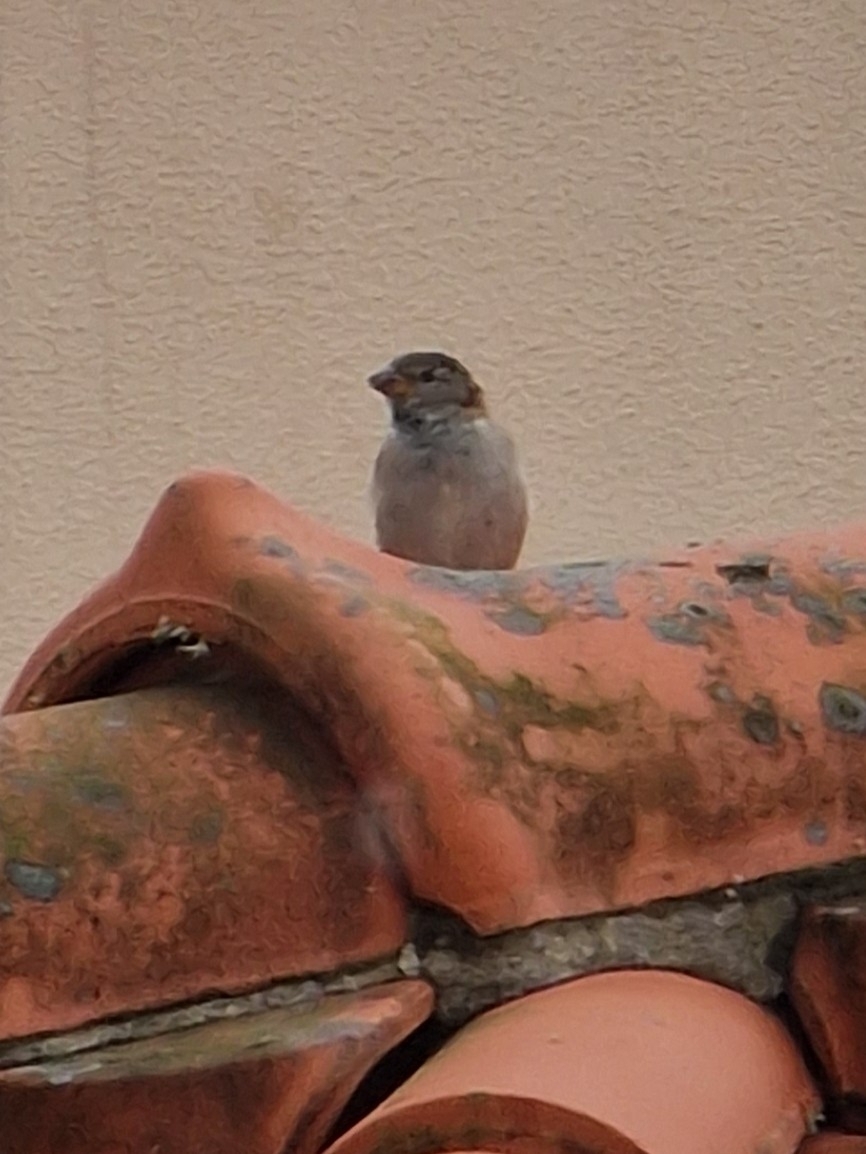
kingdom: Animalia
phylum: Chordata
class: Aves
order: Passeriformes
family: Passeridae
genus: Passer
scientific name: Passer domesticus
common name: House sparrow
